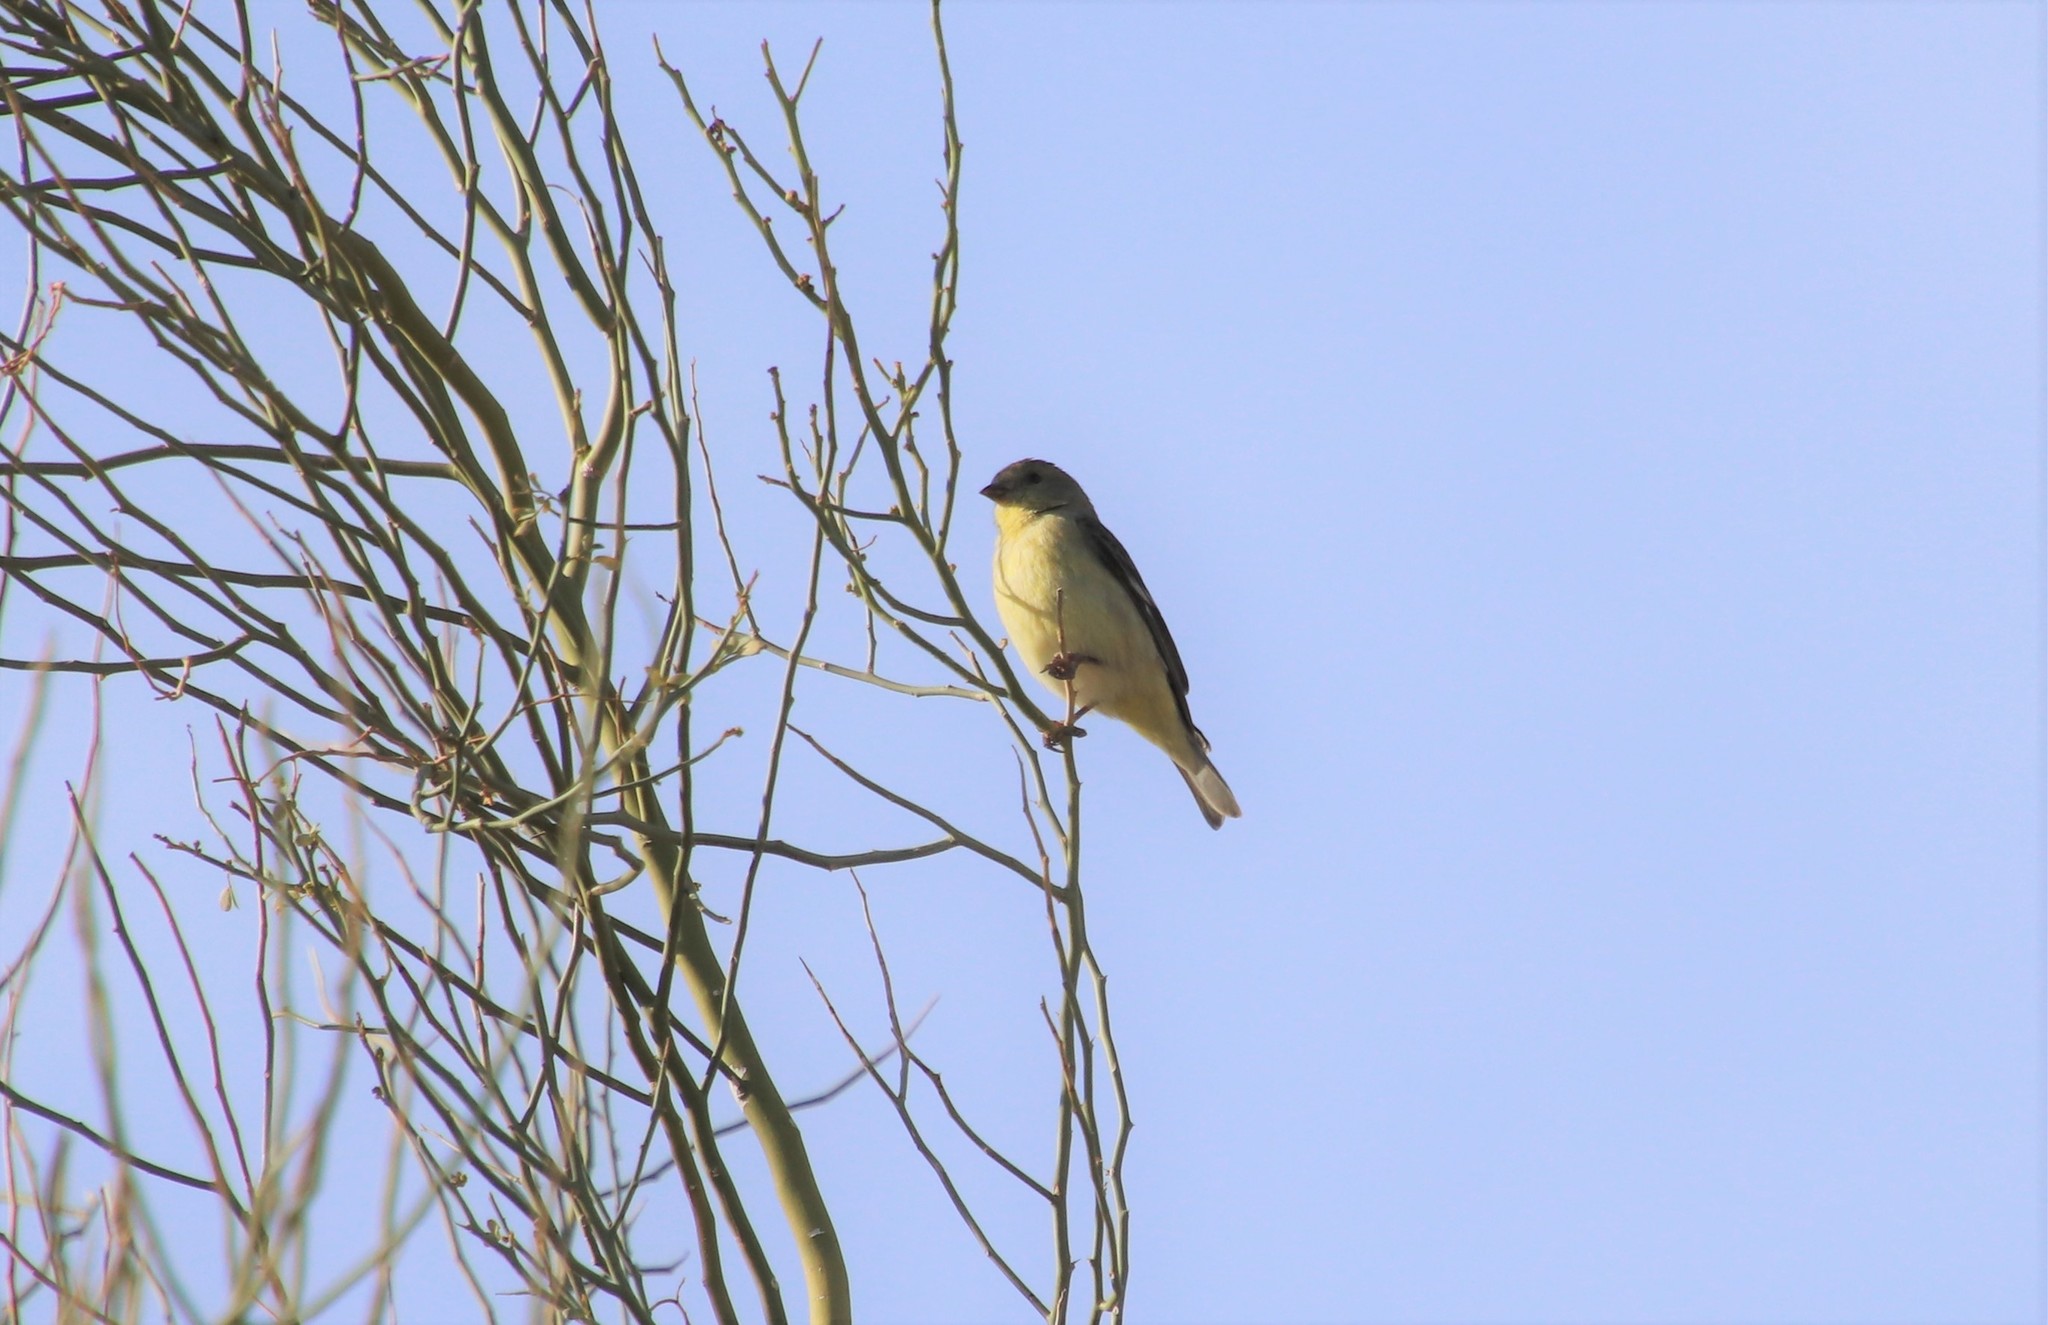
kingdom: Animalia
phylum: Chordata
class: Aves
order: Passeriformes
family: Fringillidae
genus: Spinus
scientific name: Spinus psaltria
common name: Lesser goldfinch
